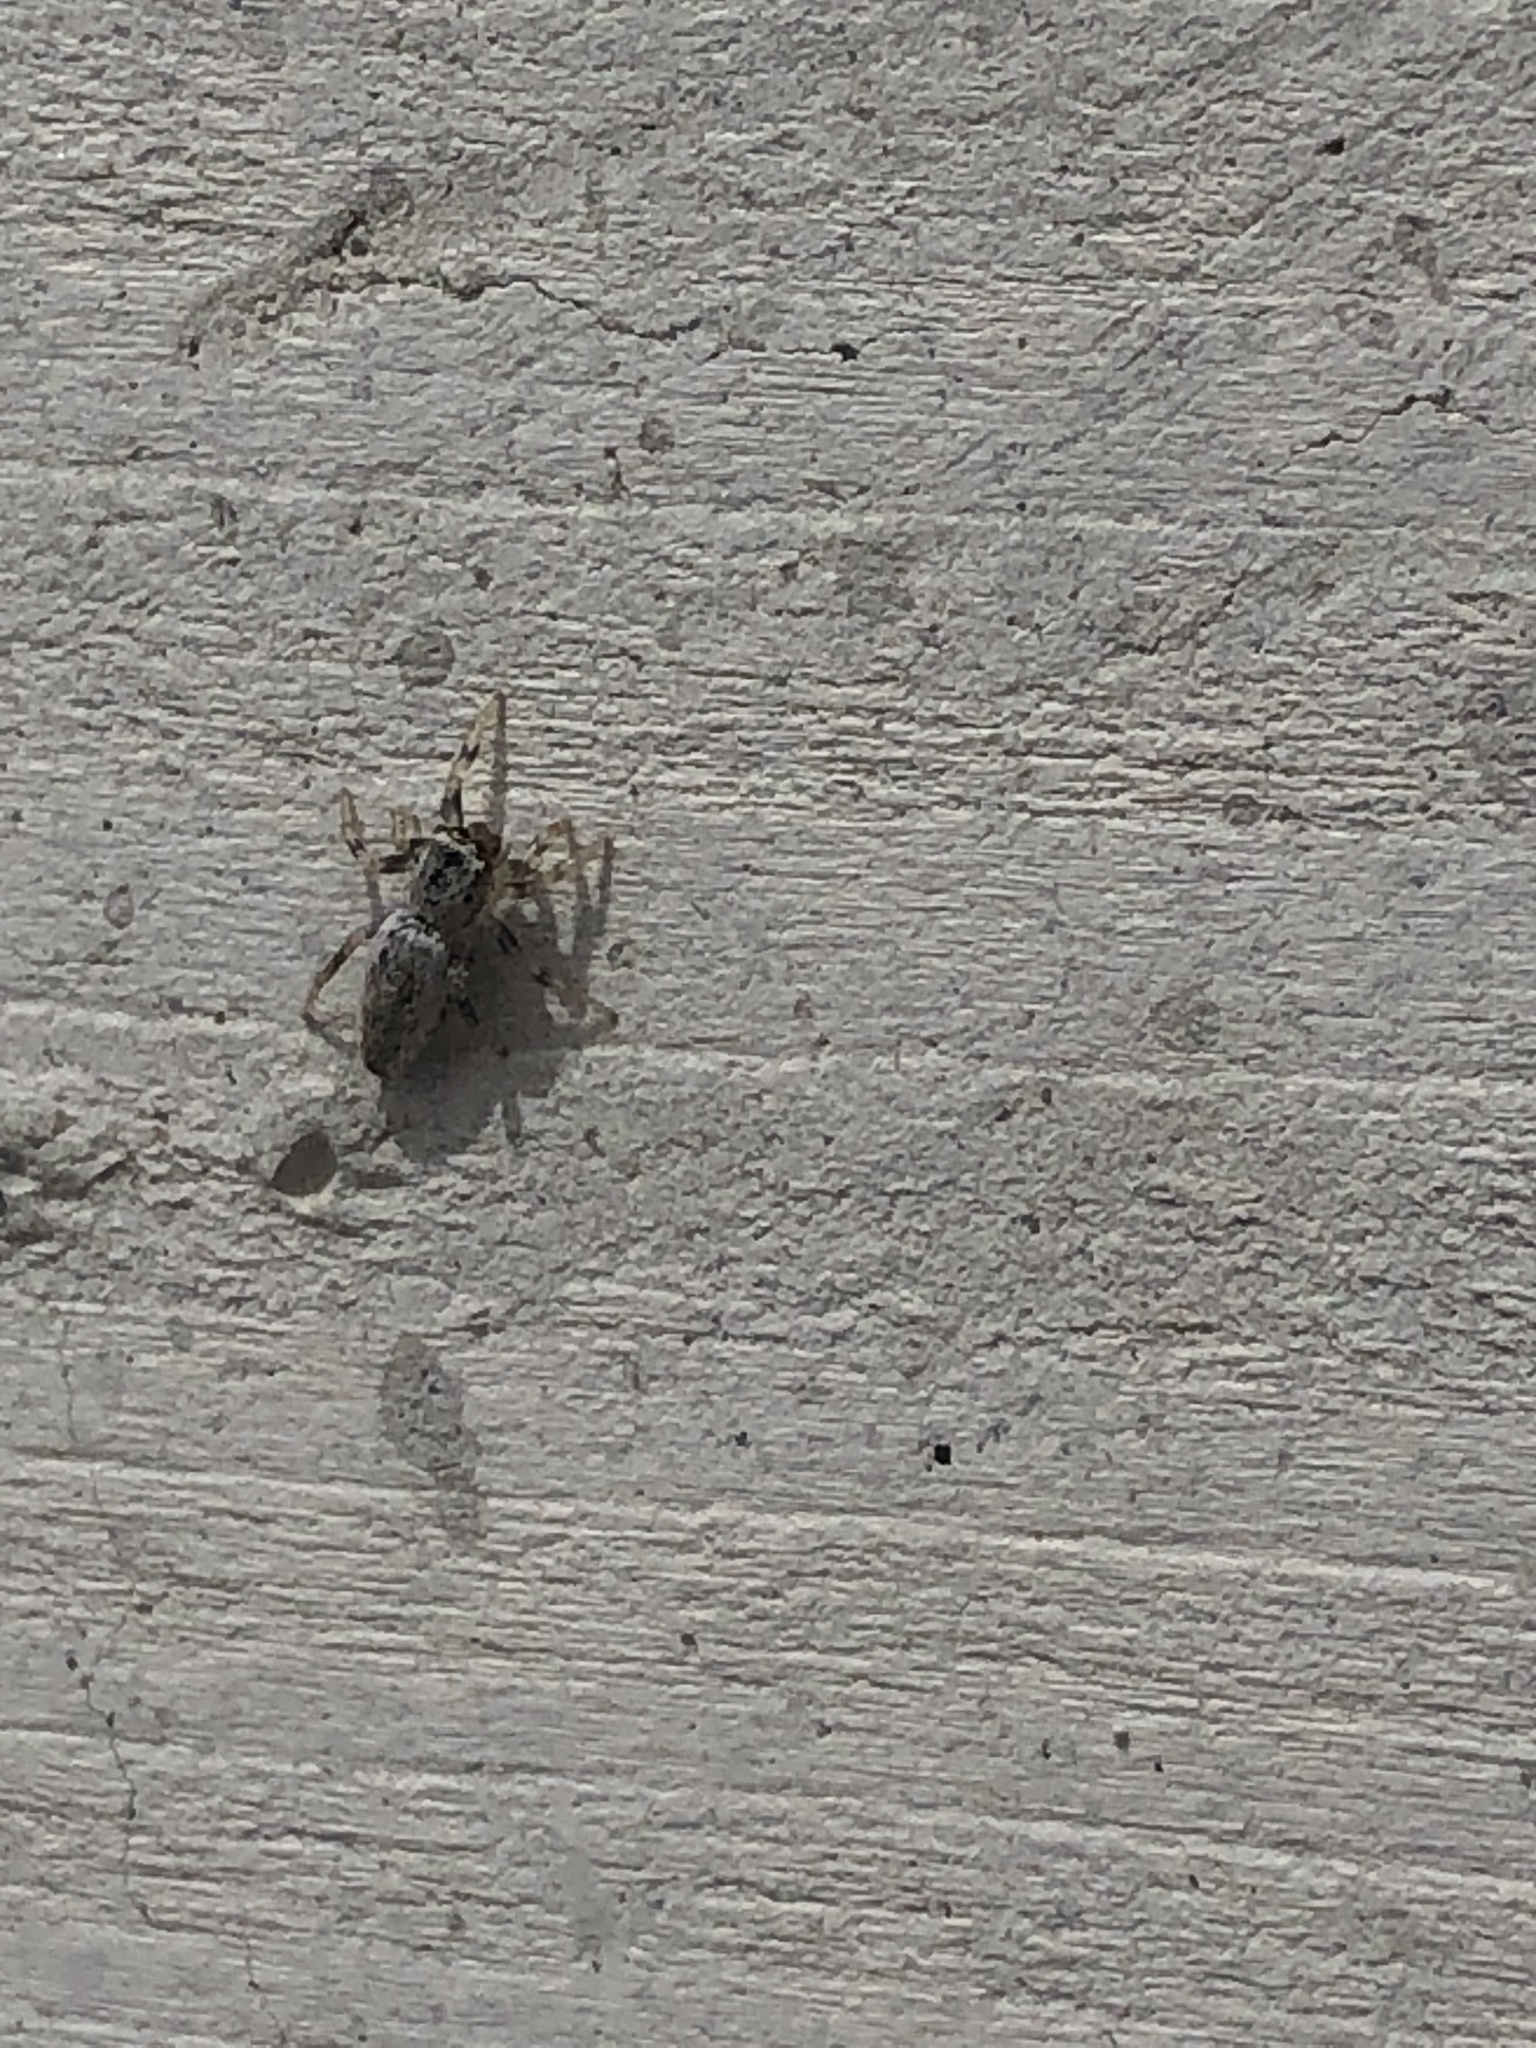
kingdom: Animalia
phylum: Arthropoda
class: Arachnida
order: Araneae
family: Salticidae
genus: Salticus
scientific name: Salticus peckhamae
